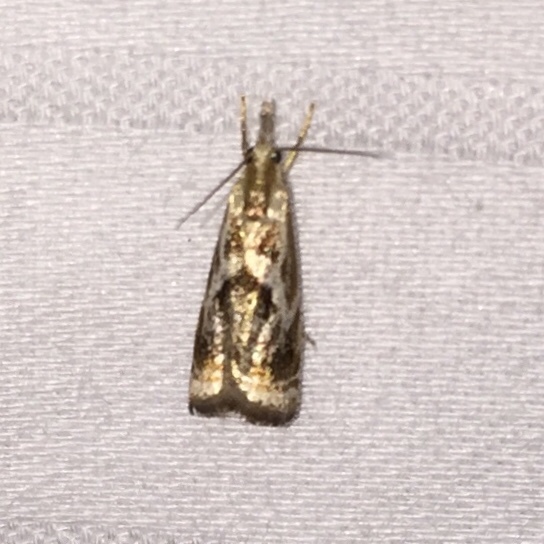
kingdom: Animalia
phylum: Arthropoda
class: Insecta
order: Lepidoptera
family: Crambidae
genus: Microcrambus
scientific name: Microcrambus elegans
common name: Elegant grass-veneer
